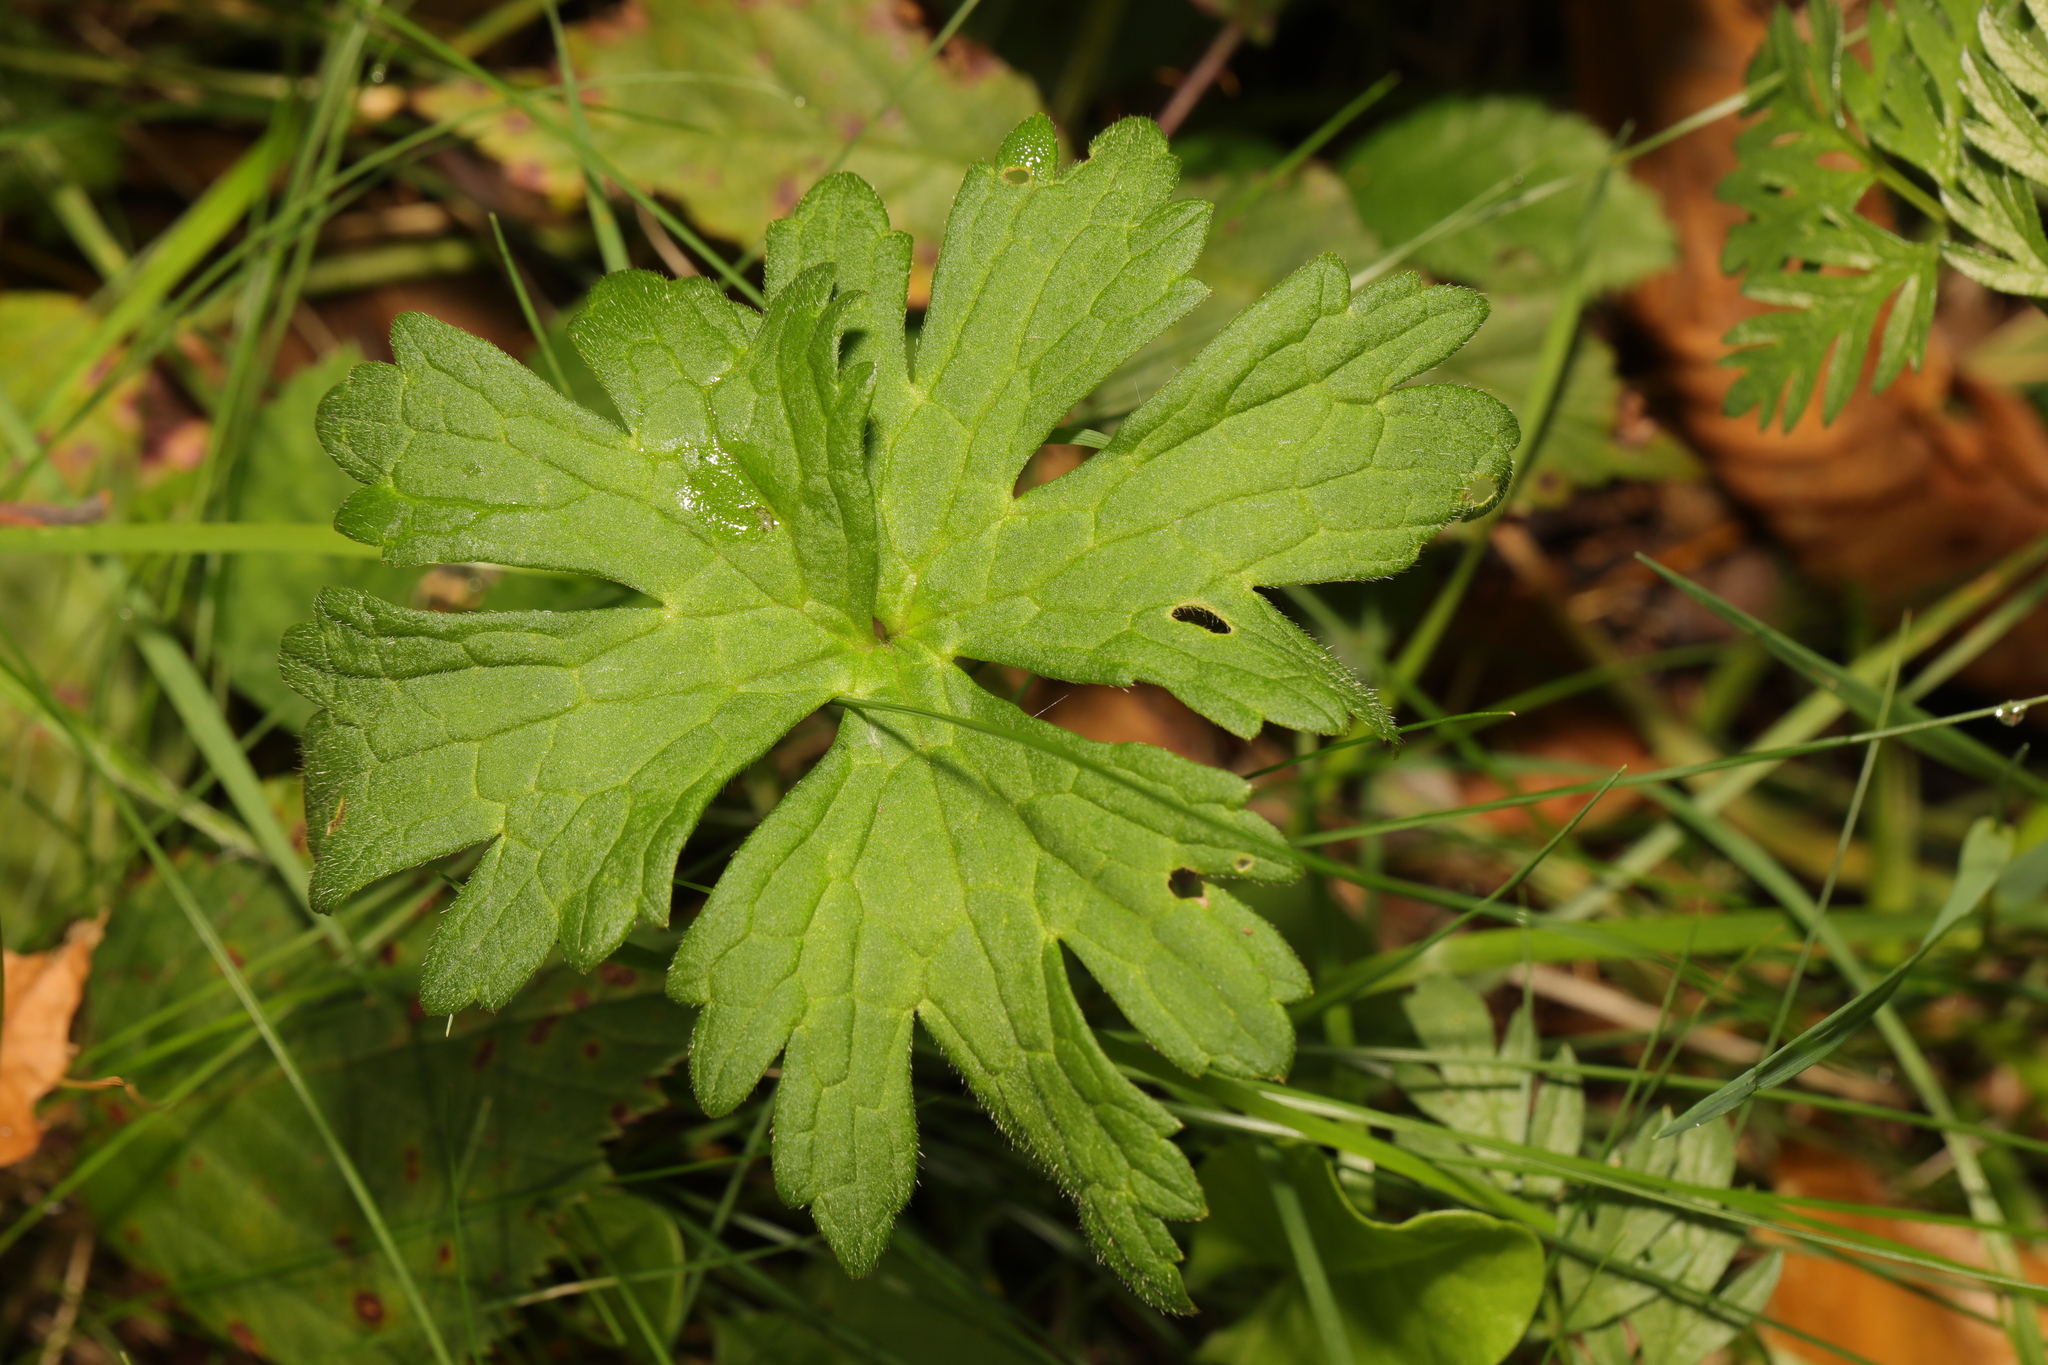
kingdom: Plantae
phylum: Tracheophyta
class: Magnoliopsida
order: Ranunculales
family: Ranunculaceae
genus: Ranunculus
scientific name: Ranunculus acris
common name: Meadow buttercup
